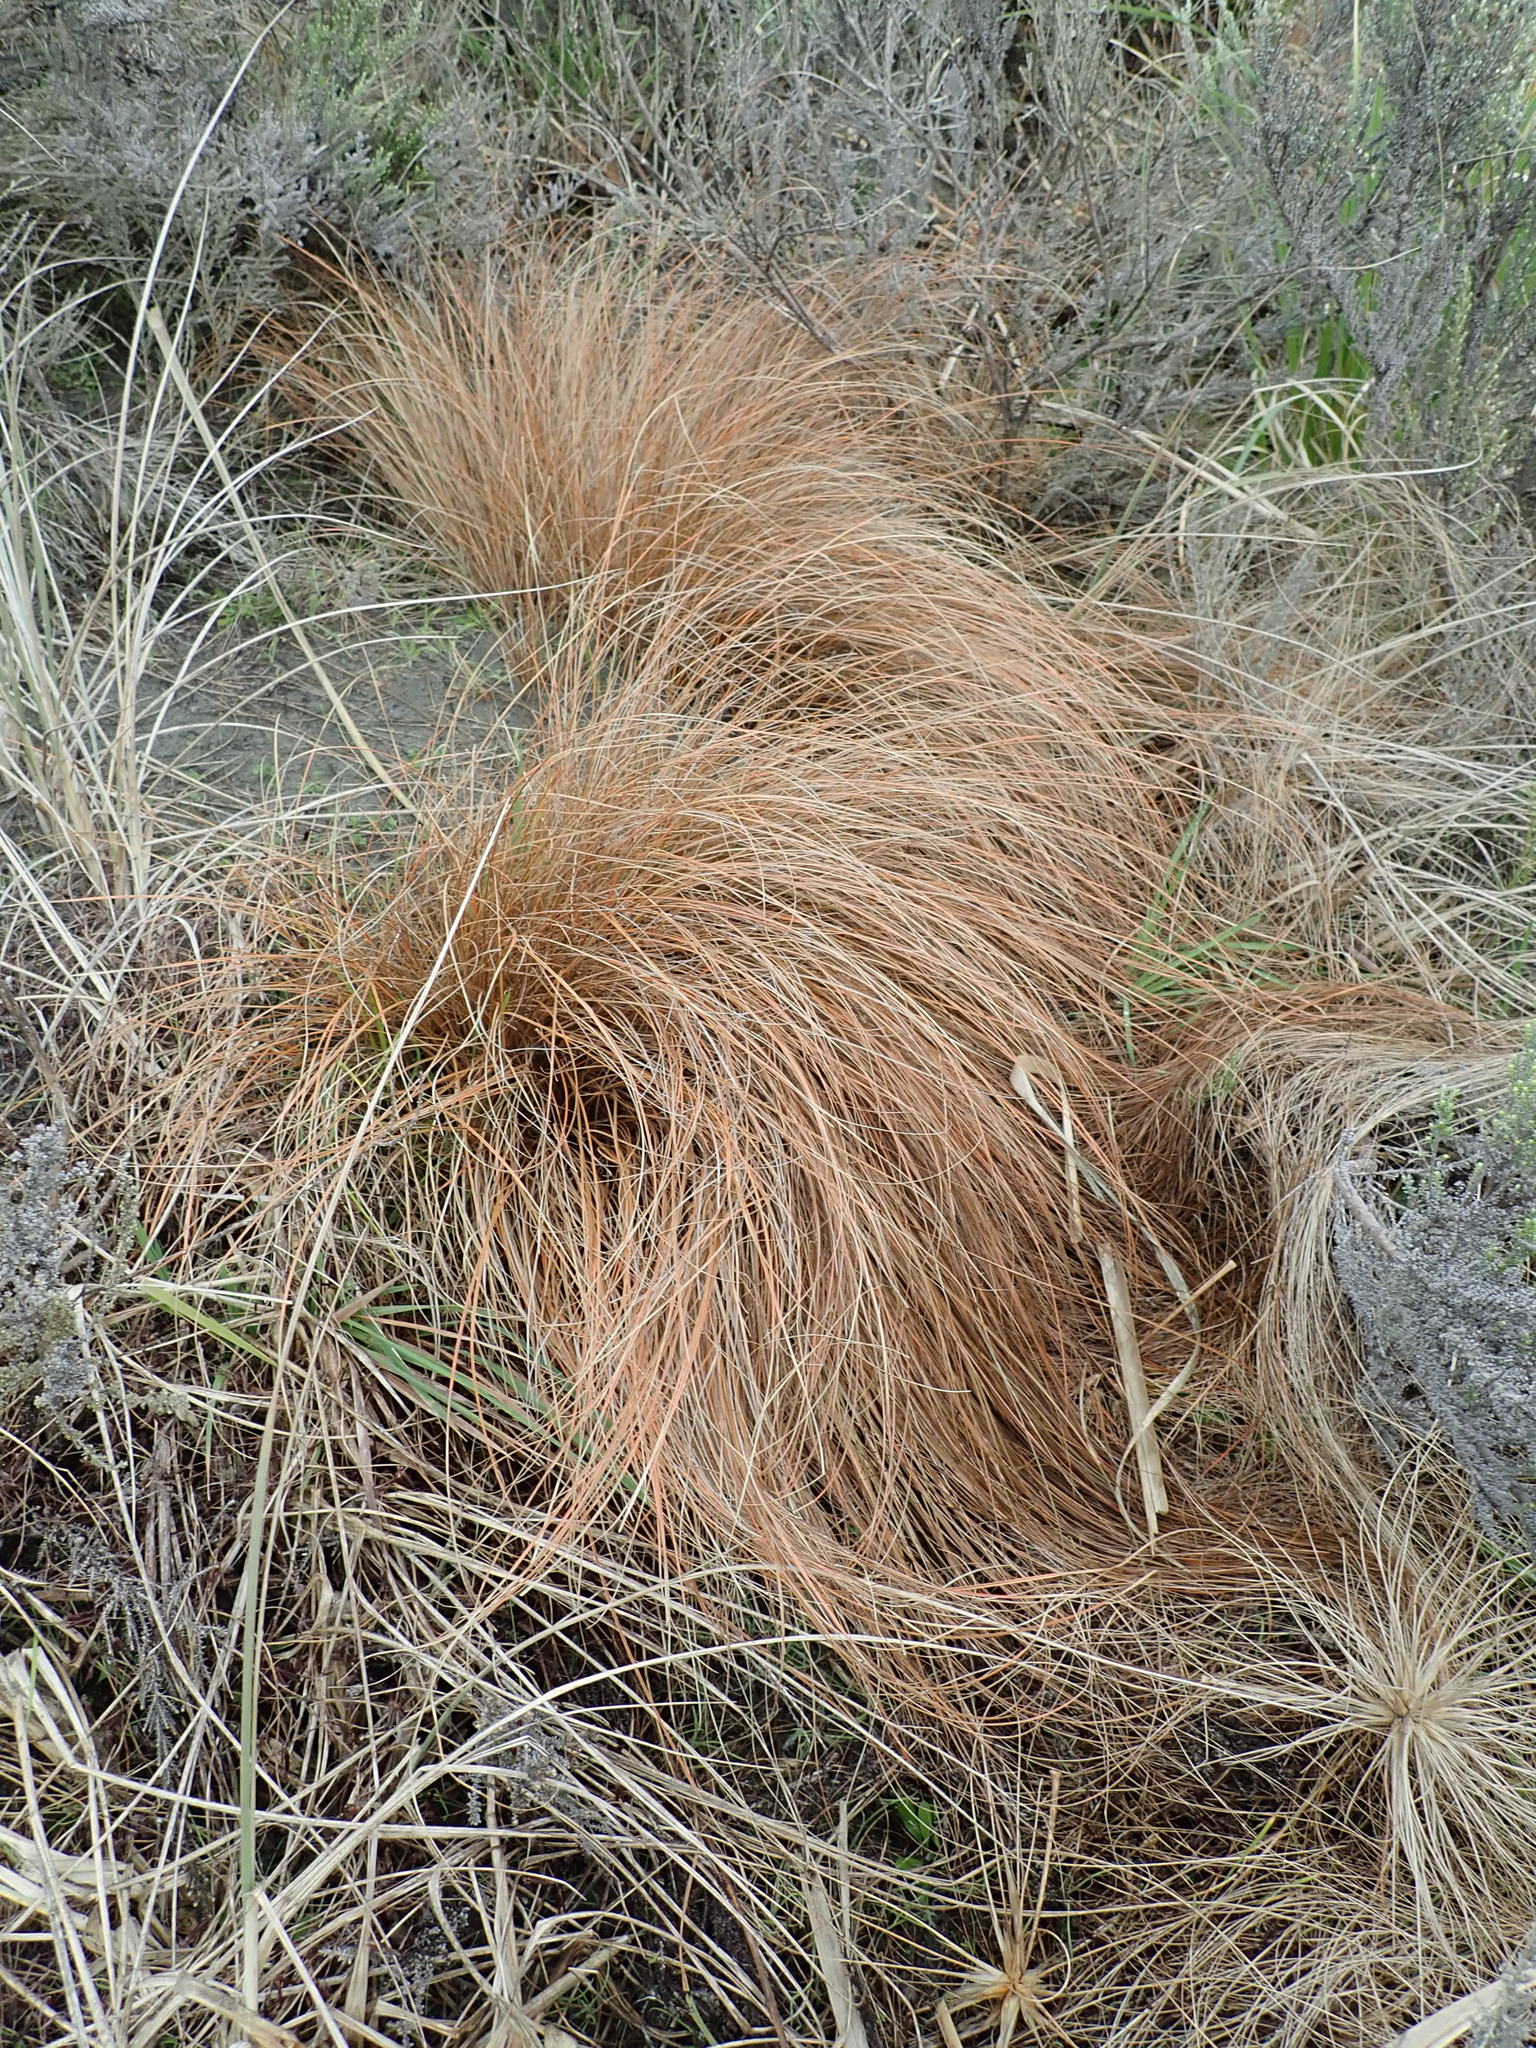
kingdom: Plantae
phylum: Tracheophyta
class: Liliopsida
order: Poales
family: Cyperaceae
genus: Carex
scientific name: Carex testacea
